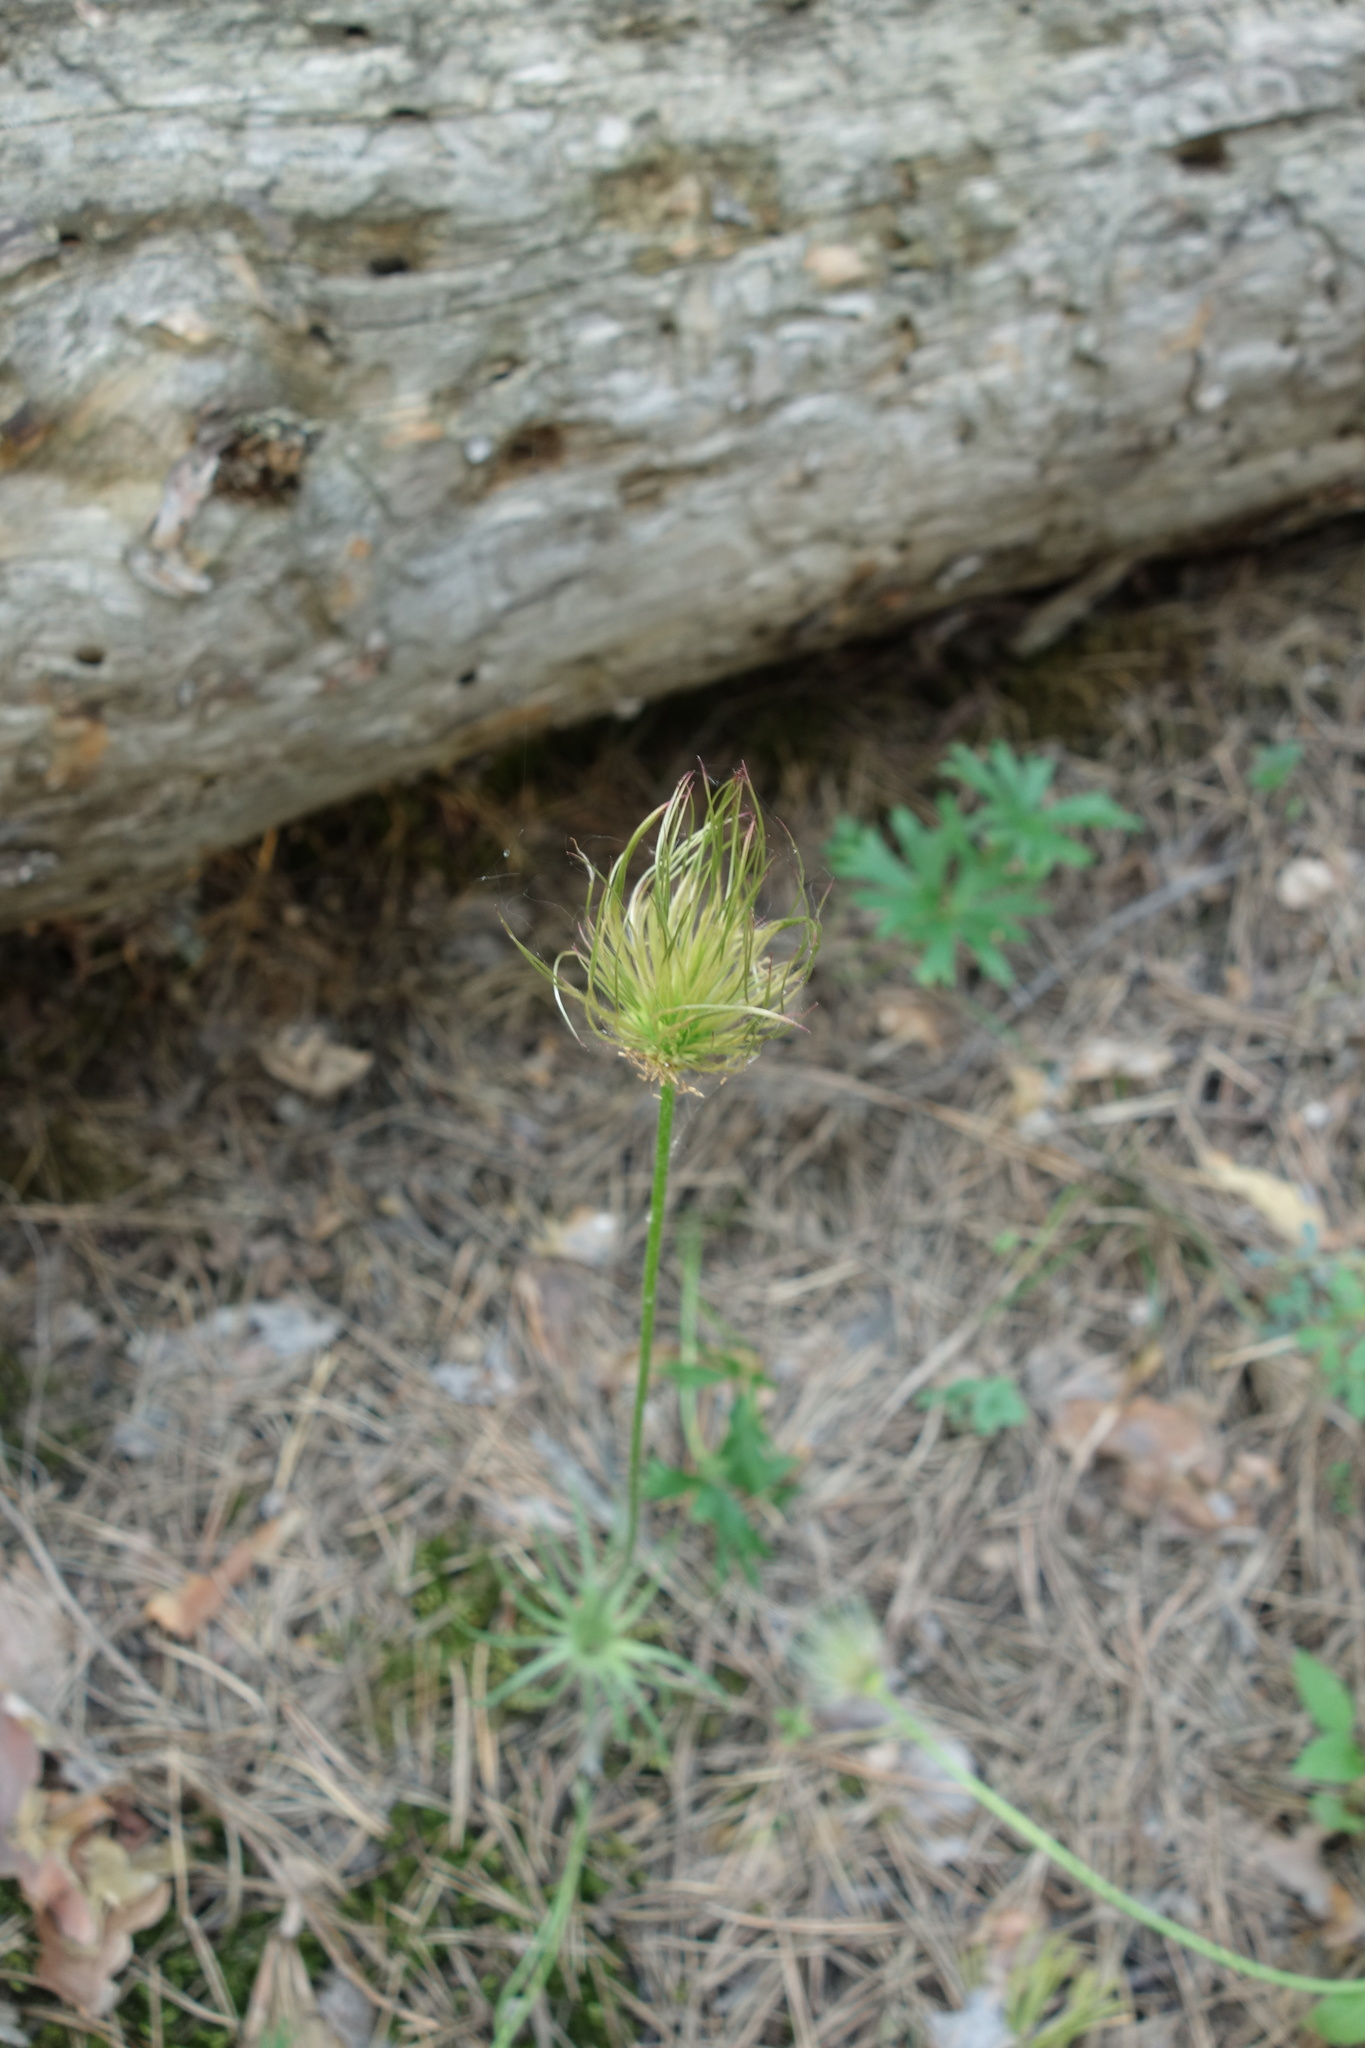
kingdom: Plantae
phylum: Tracheophyta
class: Magnoliopsida
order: Ranunculales
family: Ranunculaceae
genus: Pulsatilla
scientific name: Pulsatilla patens
